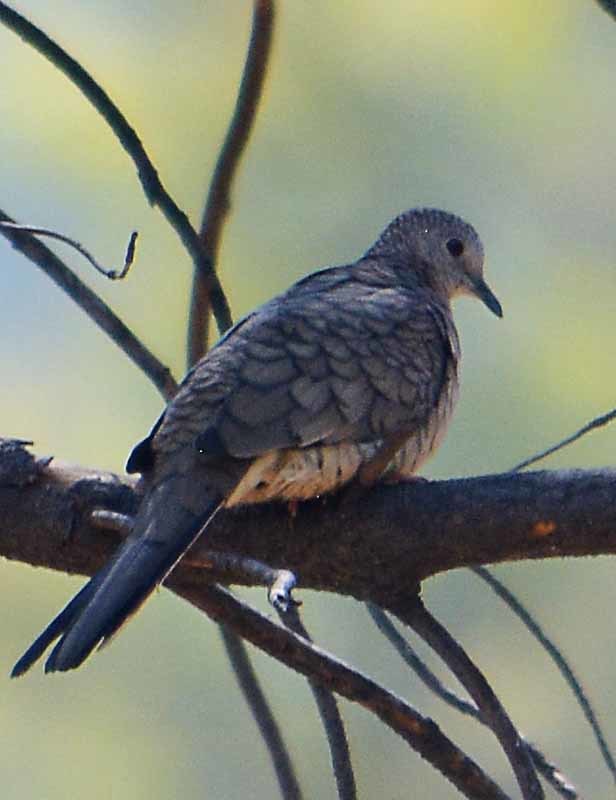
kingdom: Animalia
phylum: Chordata
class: Aves
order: Columbiformes
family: Columbidae
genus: Columbina
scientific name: Columbina inca
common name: Inca dove
